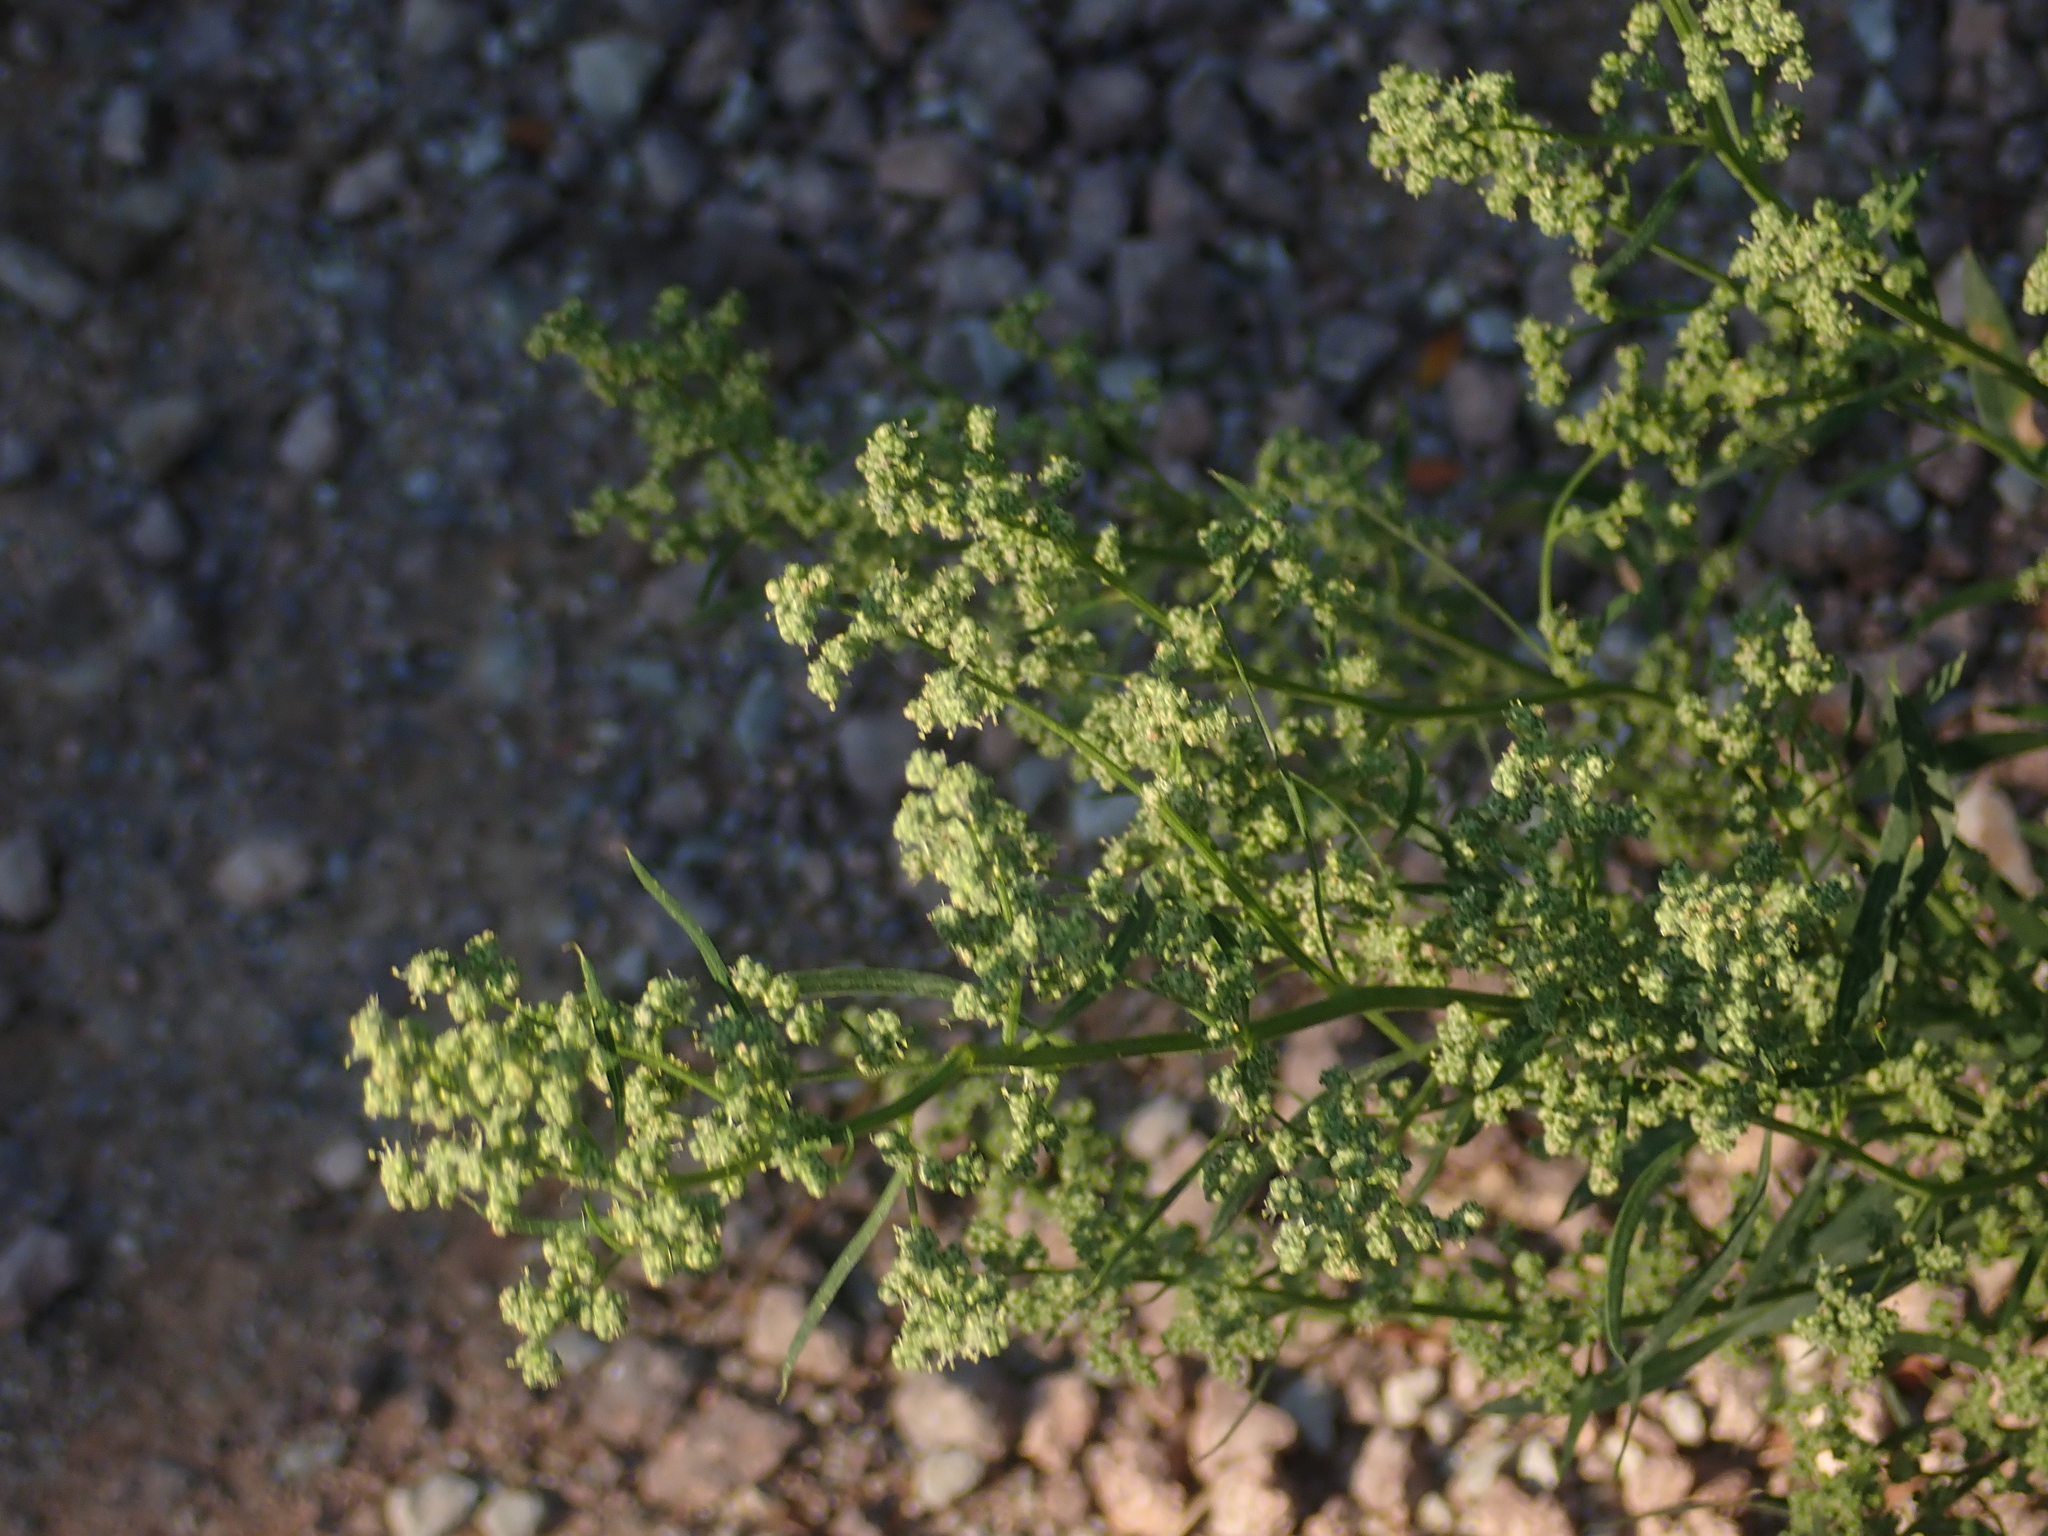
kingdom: Plantae
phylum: Tracheophyta
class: Magnoliopsida
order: Caryophyllales
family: Amaranthaceae
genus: Chenopodium
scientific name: Chenopodium album
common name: Fat-hen
